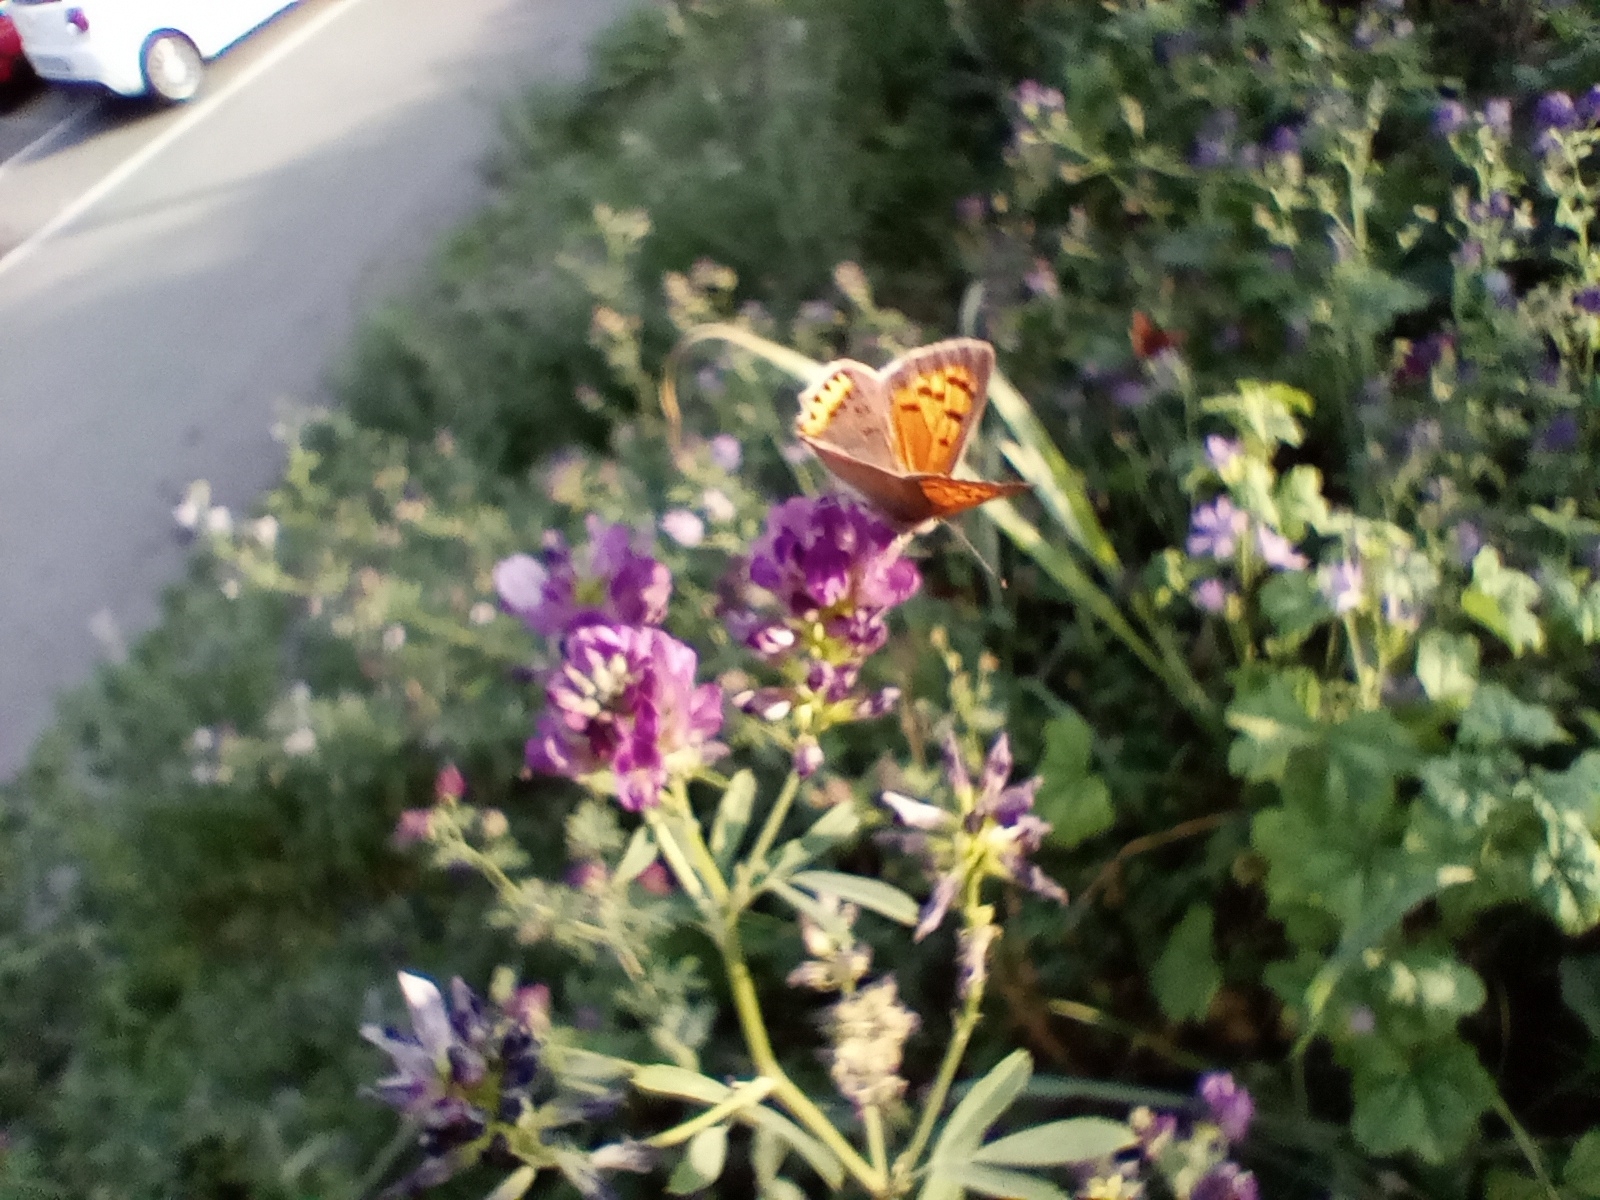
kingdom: Animalia
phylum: Arthropoda
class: Insecta
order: Lepidoptera
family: Lycaenidae
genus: Lycaena
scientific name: Lycaena phlaeas
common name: Small copper
